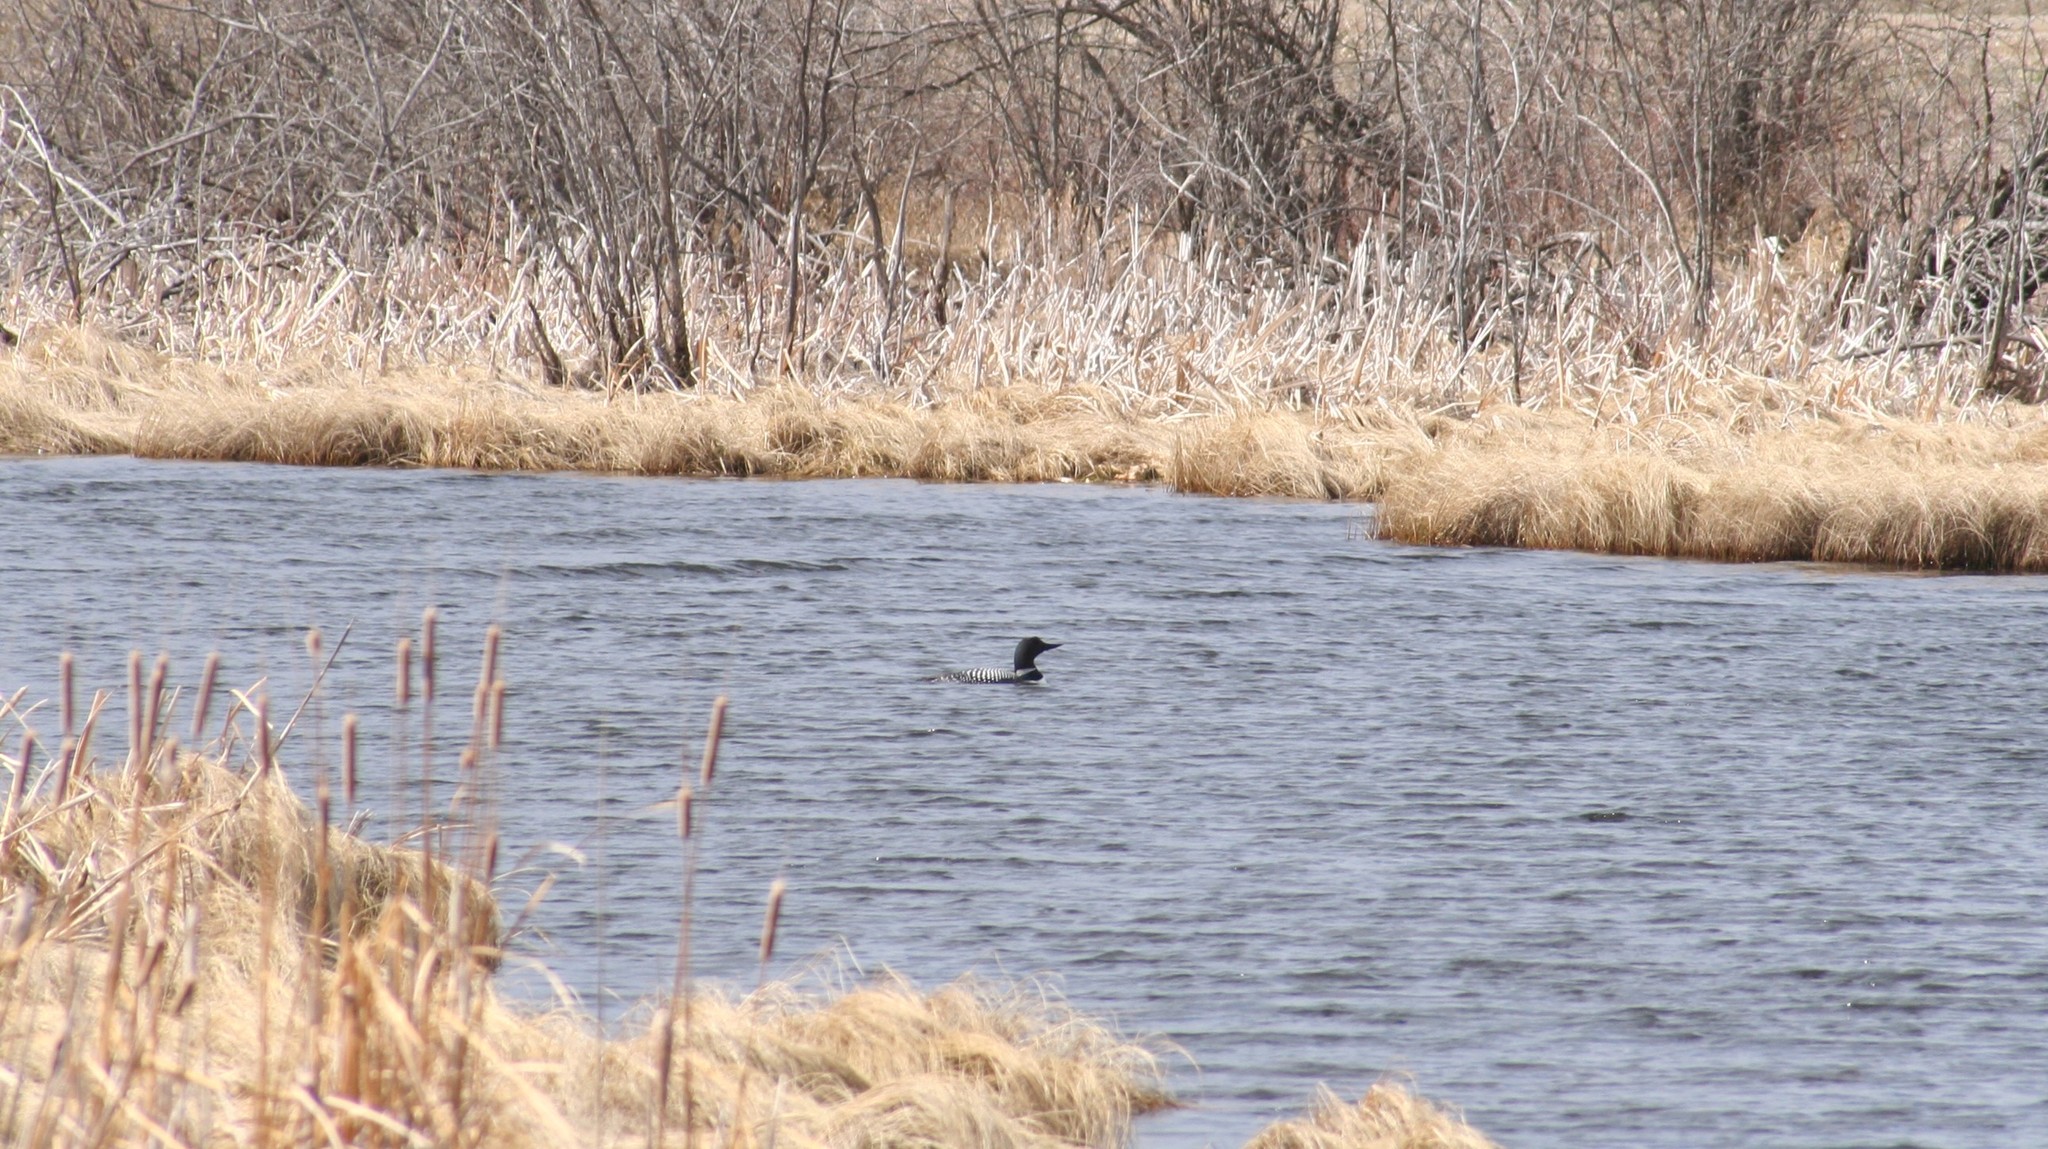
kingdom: Animalia
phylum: Chordata
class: Aves
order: Gaviiformes
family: Gaviidae
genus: Gavia
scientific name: Gavia immer
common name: Common loon
